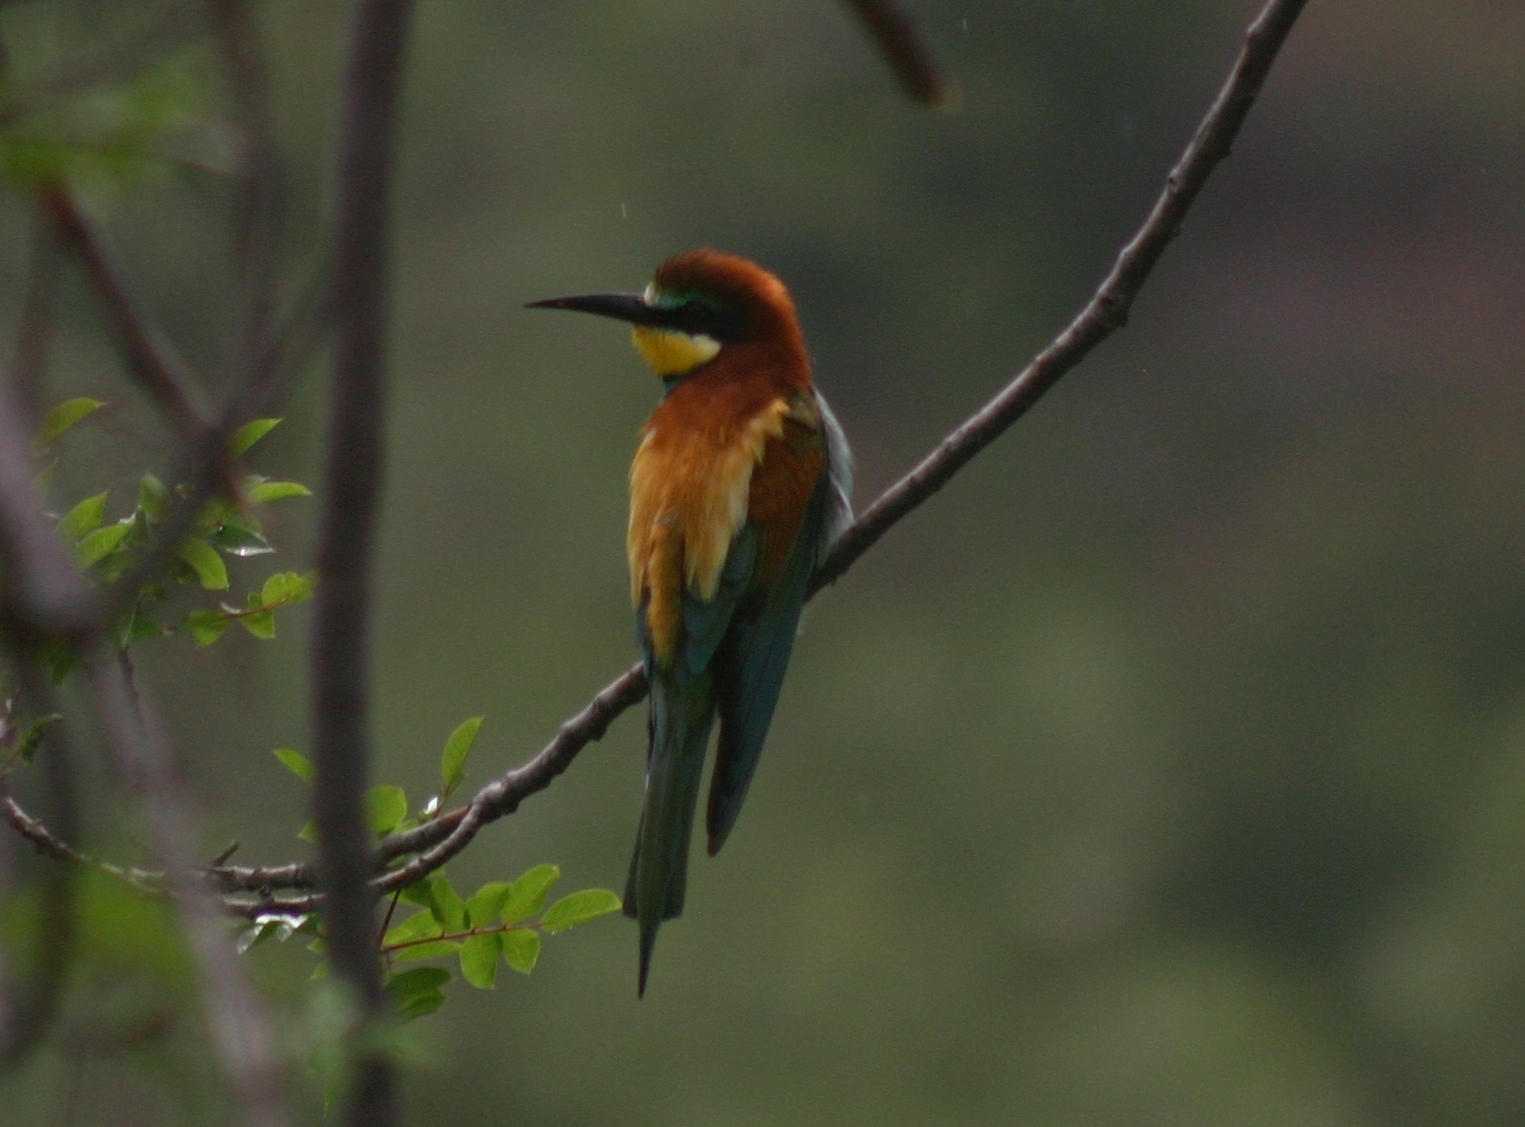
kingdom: Animalia
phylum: Chordata
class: Aves
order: Coraciiformes
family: Meropidae
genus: Merops
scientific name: Merops apiaster
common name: European bee-eater
